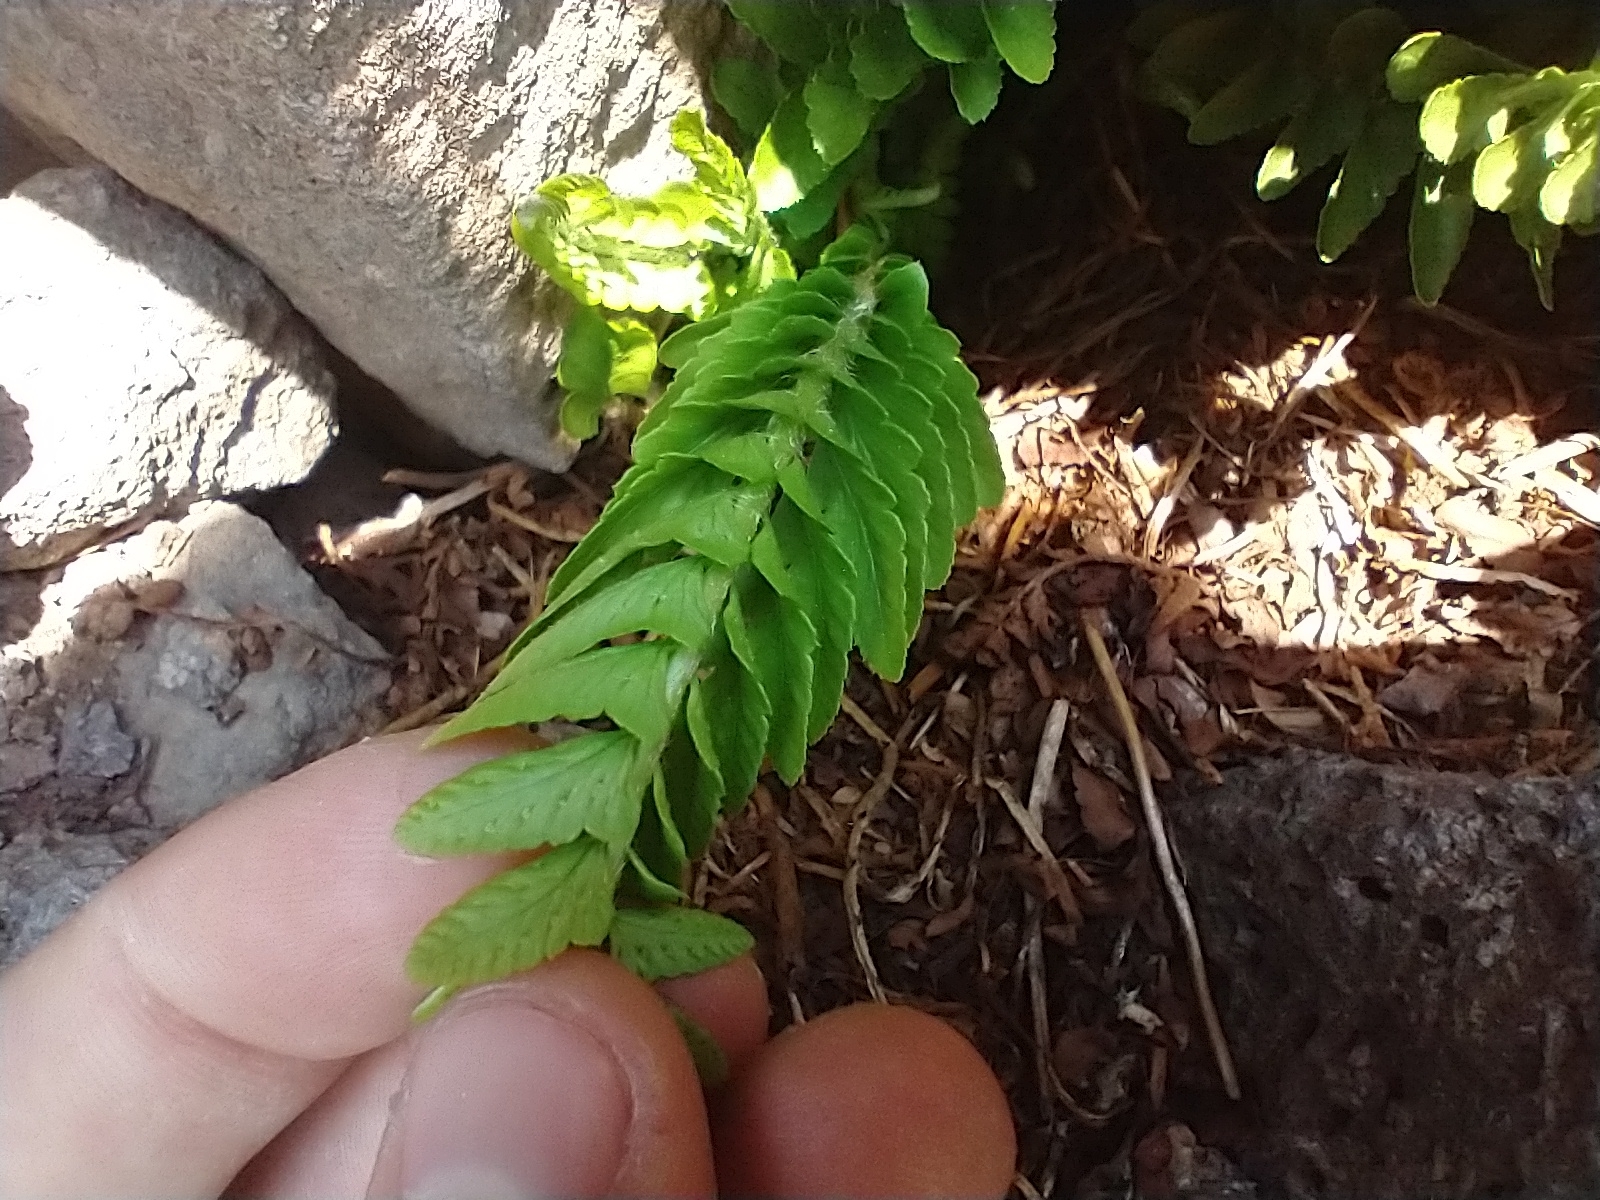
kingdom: Plantae
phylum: Tracheophyta
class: Polypodiopsida
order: Polypodiales
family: Dryopteridaceae
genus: Polystichum
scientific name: Polystichum scopulinum
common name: Eaton's shield fern
